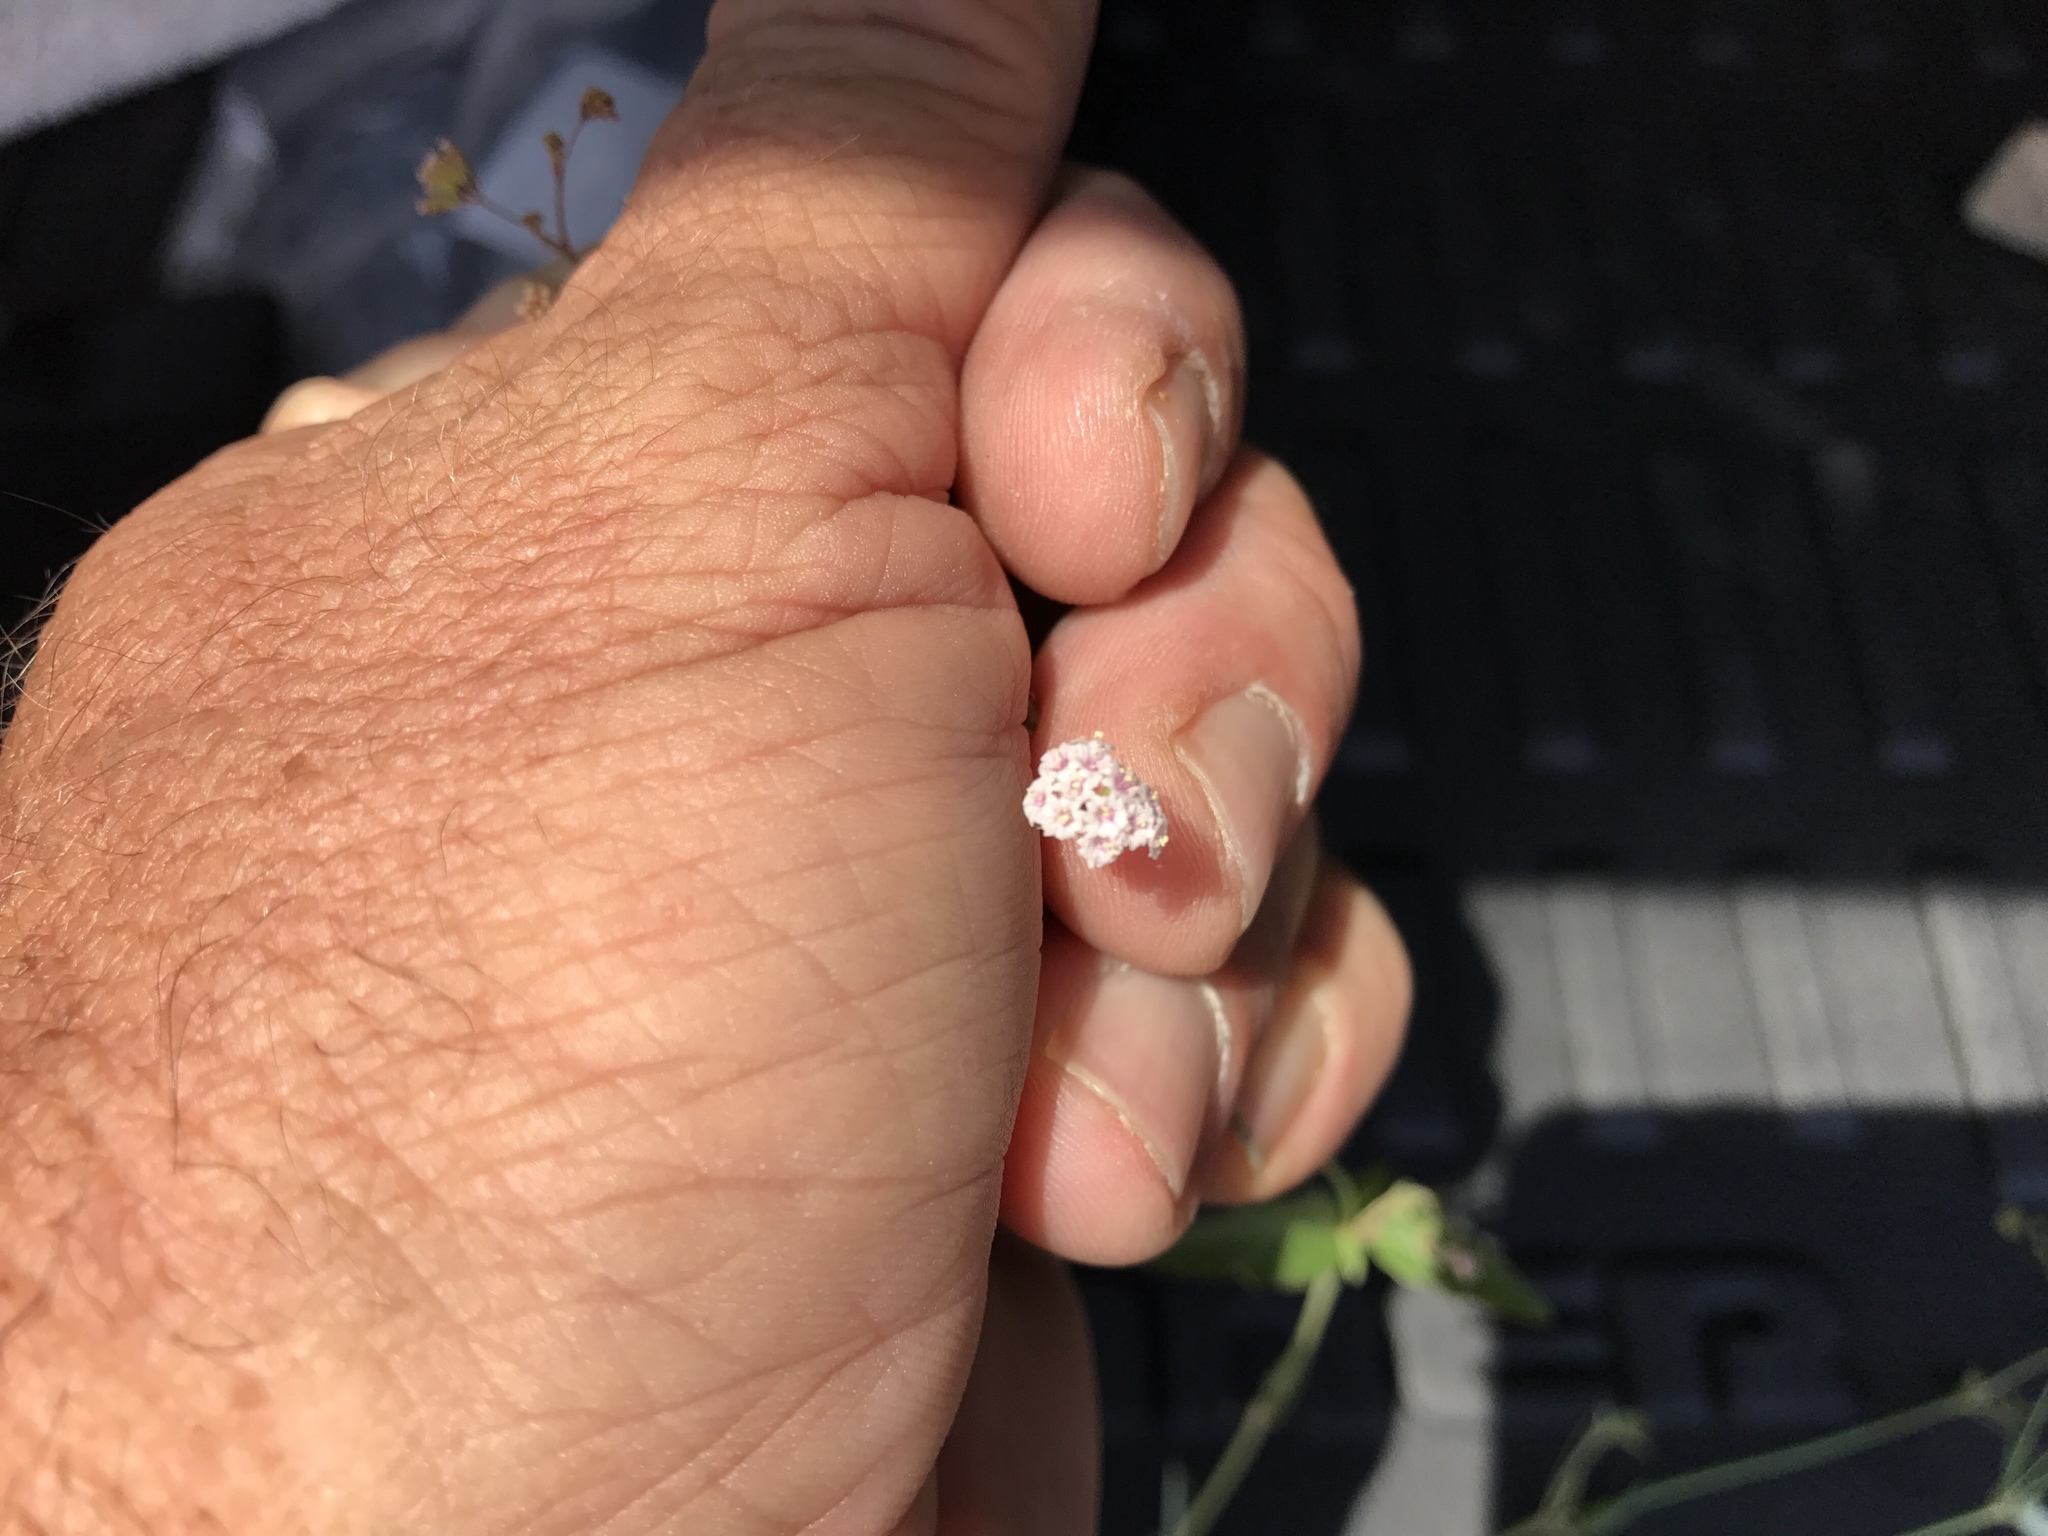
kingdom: Plantae
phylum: Tracheophyta
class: Magnoliopsida
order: Caryophyllales
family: Nyctaginaceae
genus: Boerhavia
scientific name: Boerhavia erecta
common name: Erect spiderling
